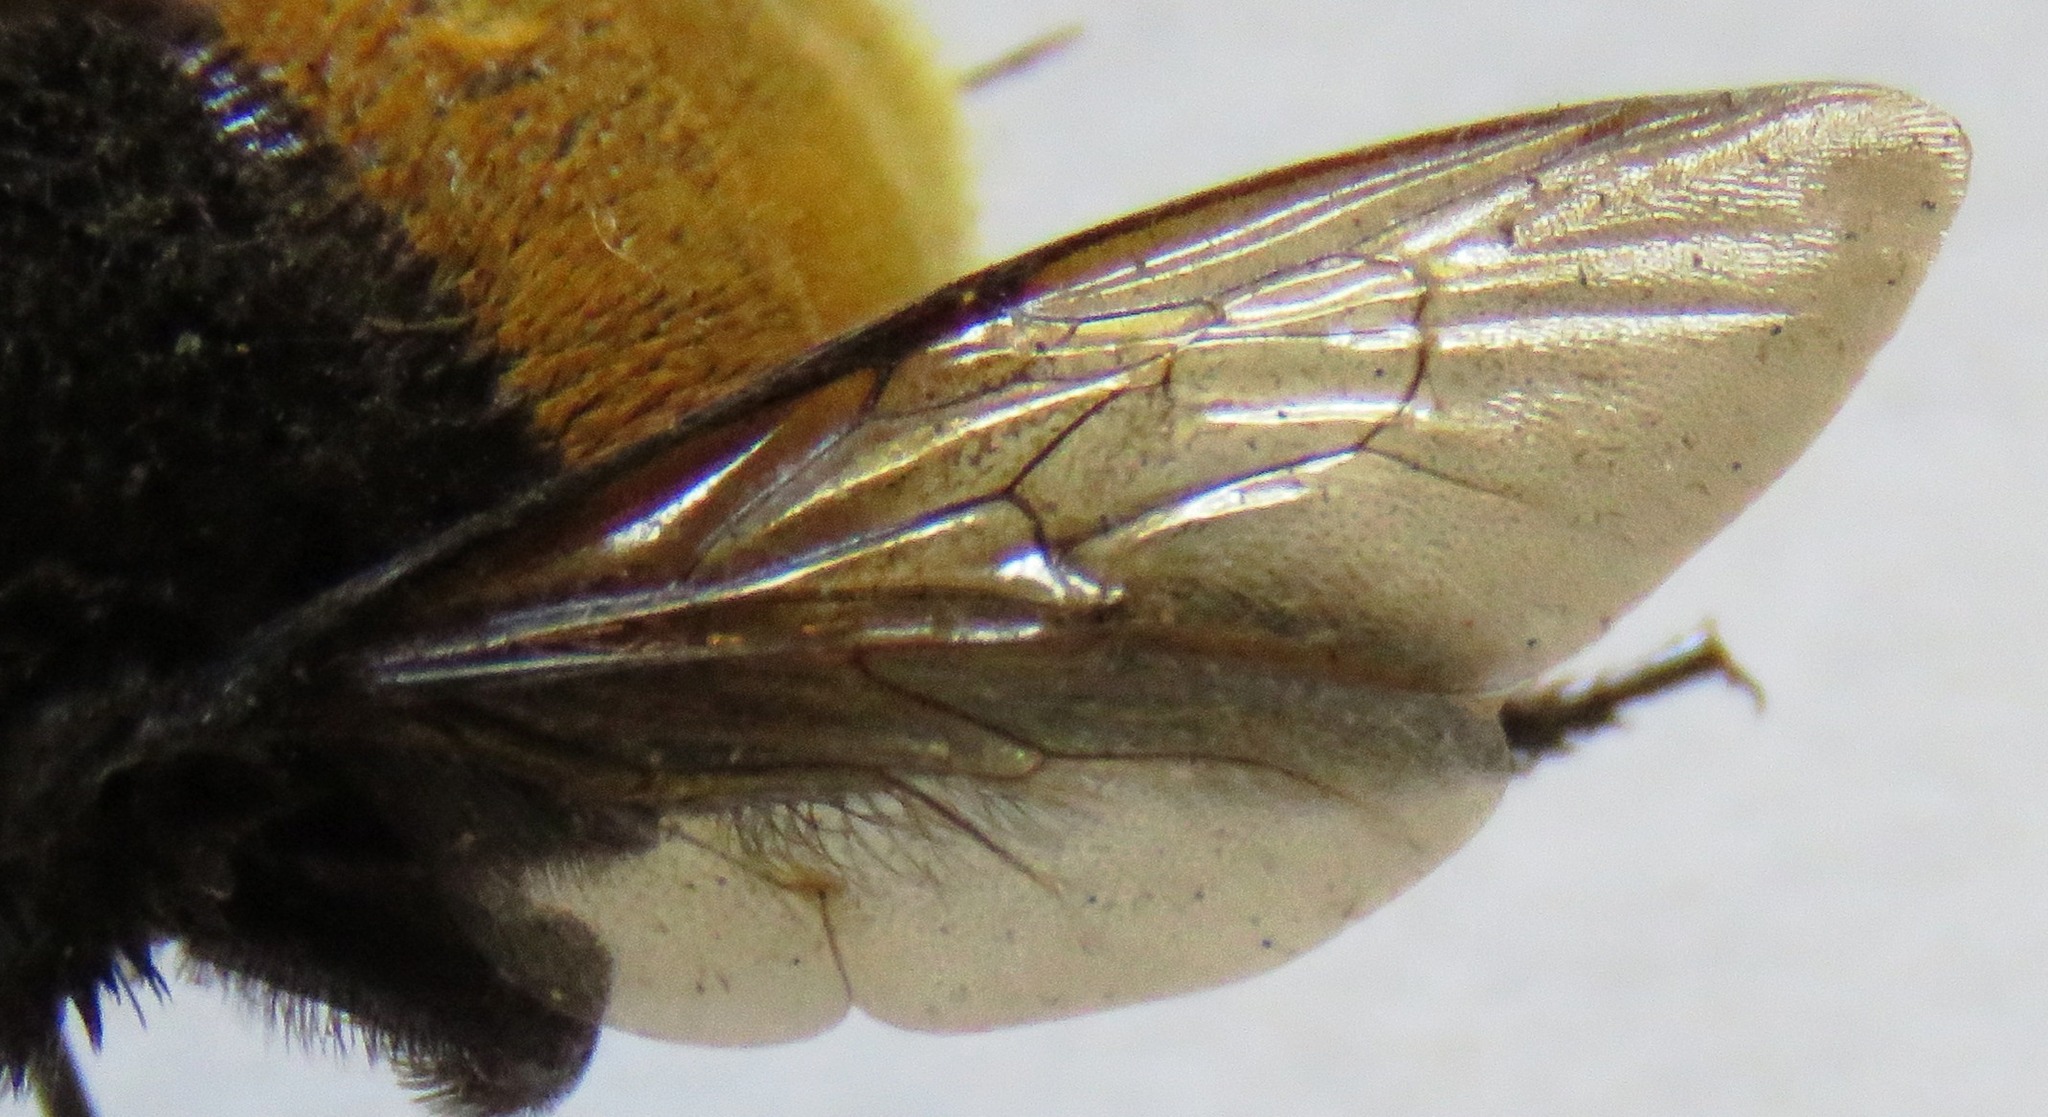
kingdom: Animalia
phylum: Arthropoda
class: Insecta
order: Hymenoptera
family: Apidae
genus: Eulaema
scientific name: Eulaema polychroma
